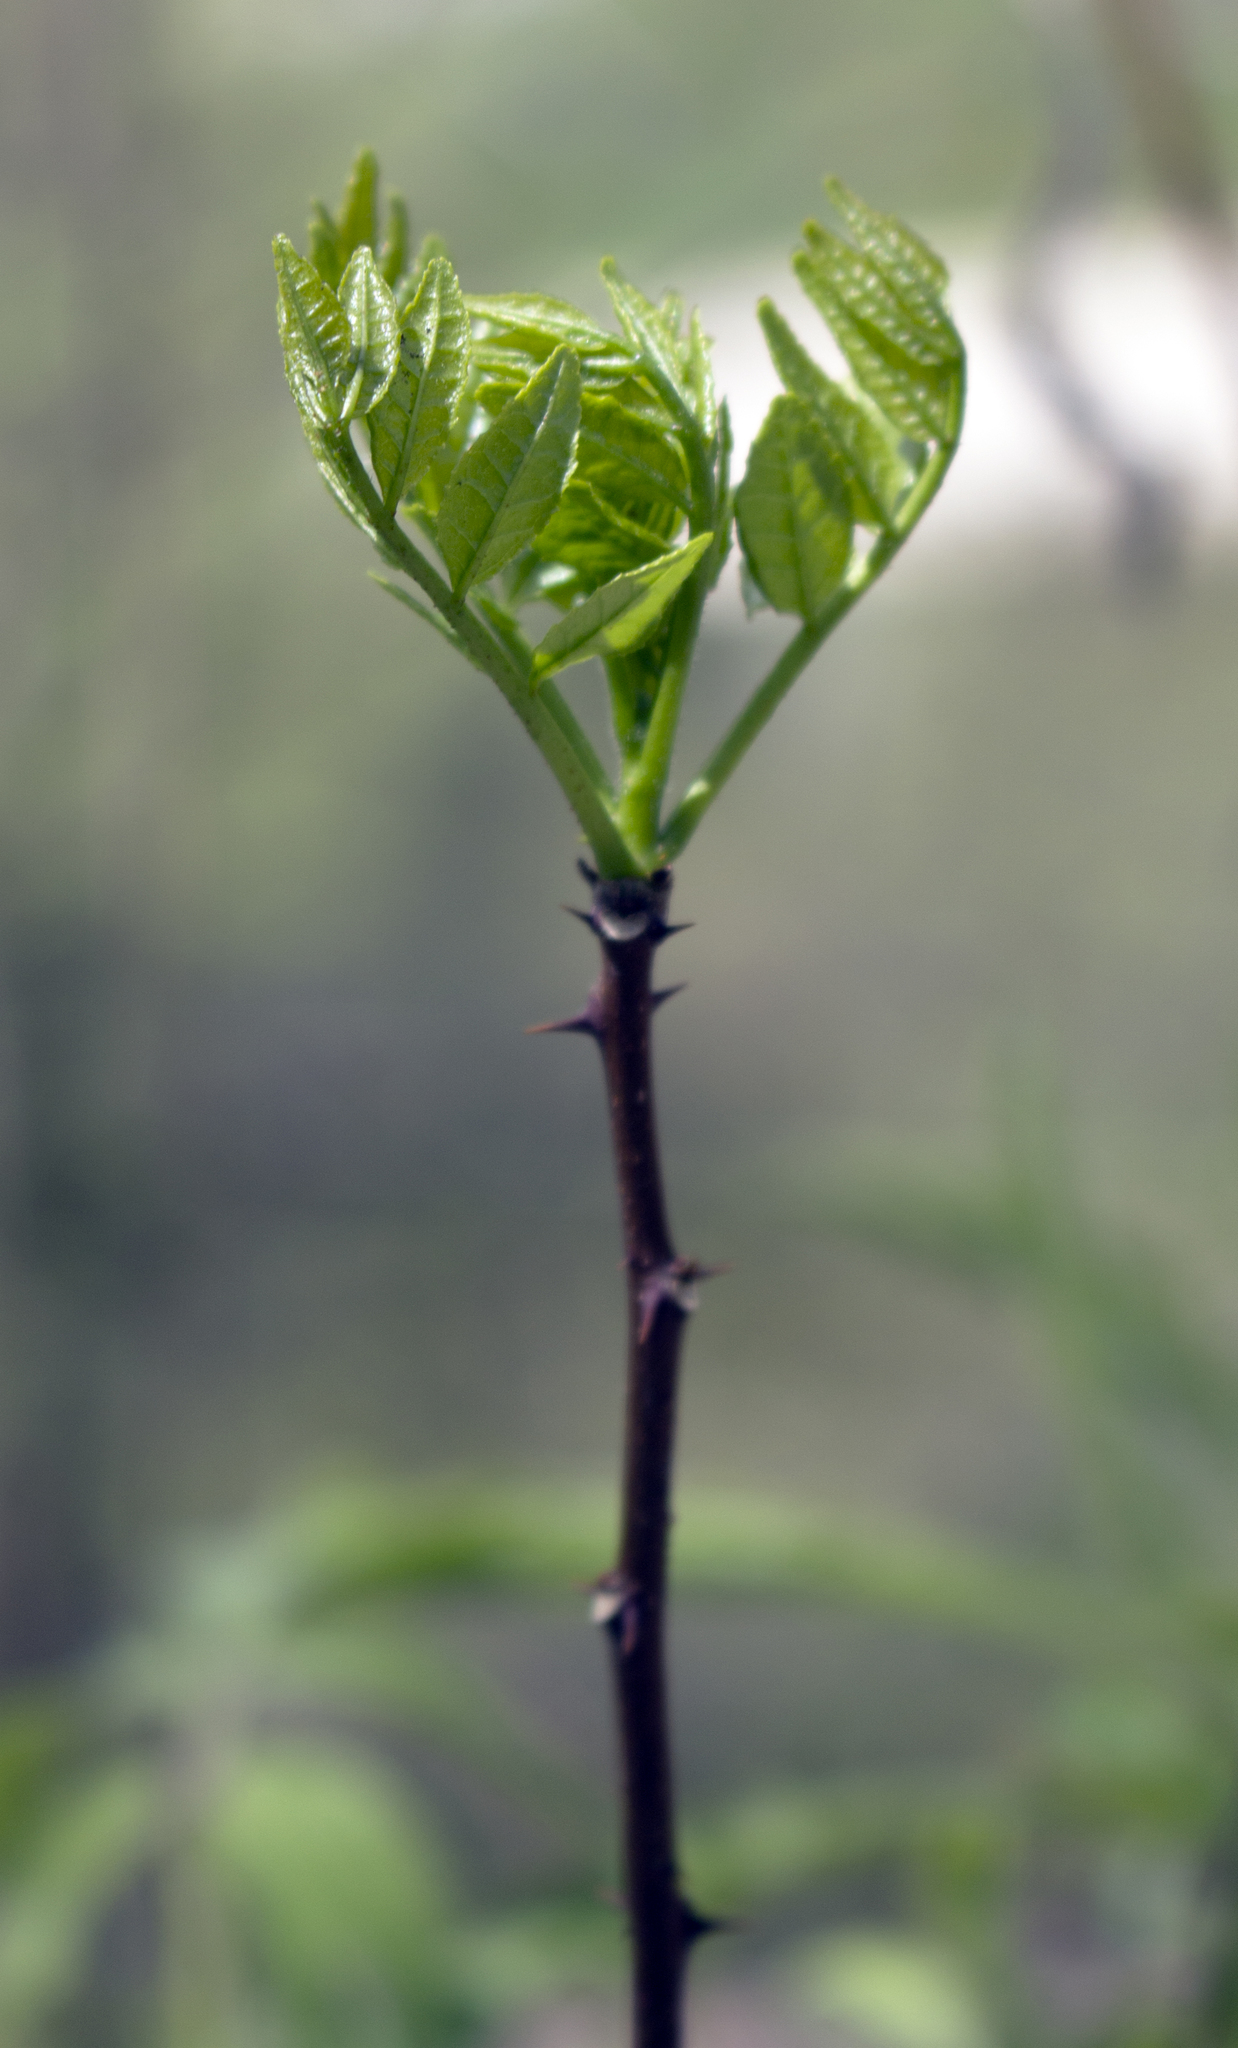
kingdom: Plantae
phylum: Tracheophyta
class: Magnoliopsida
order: Sapindales
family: Rutaceae
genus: Zanthoxylum
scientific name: Zanthoxylum americanum
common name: Northern prickly-ash
